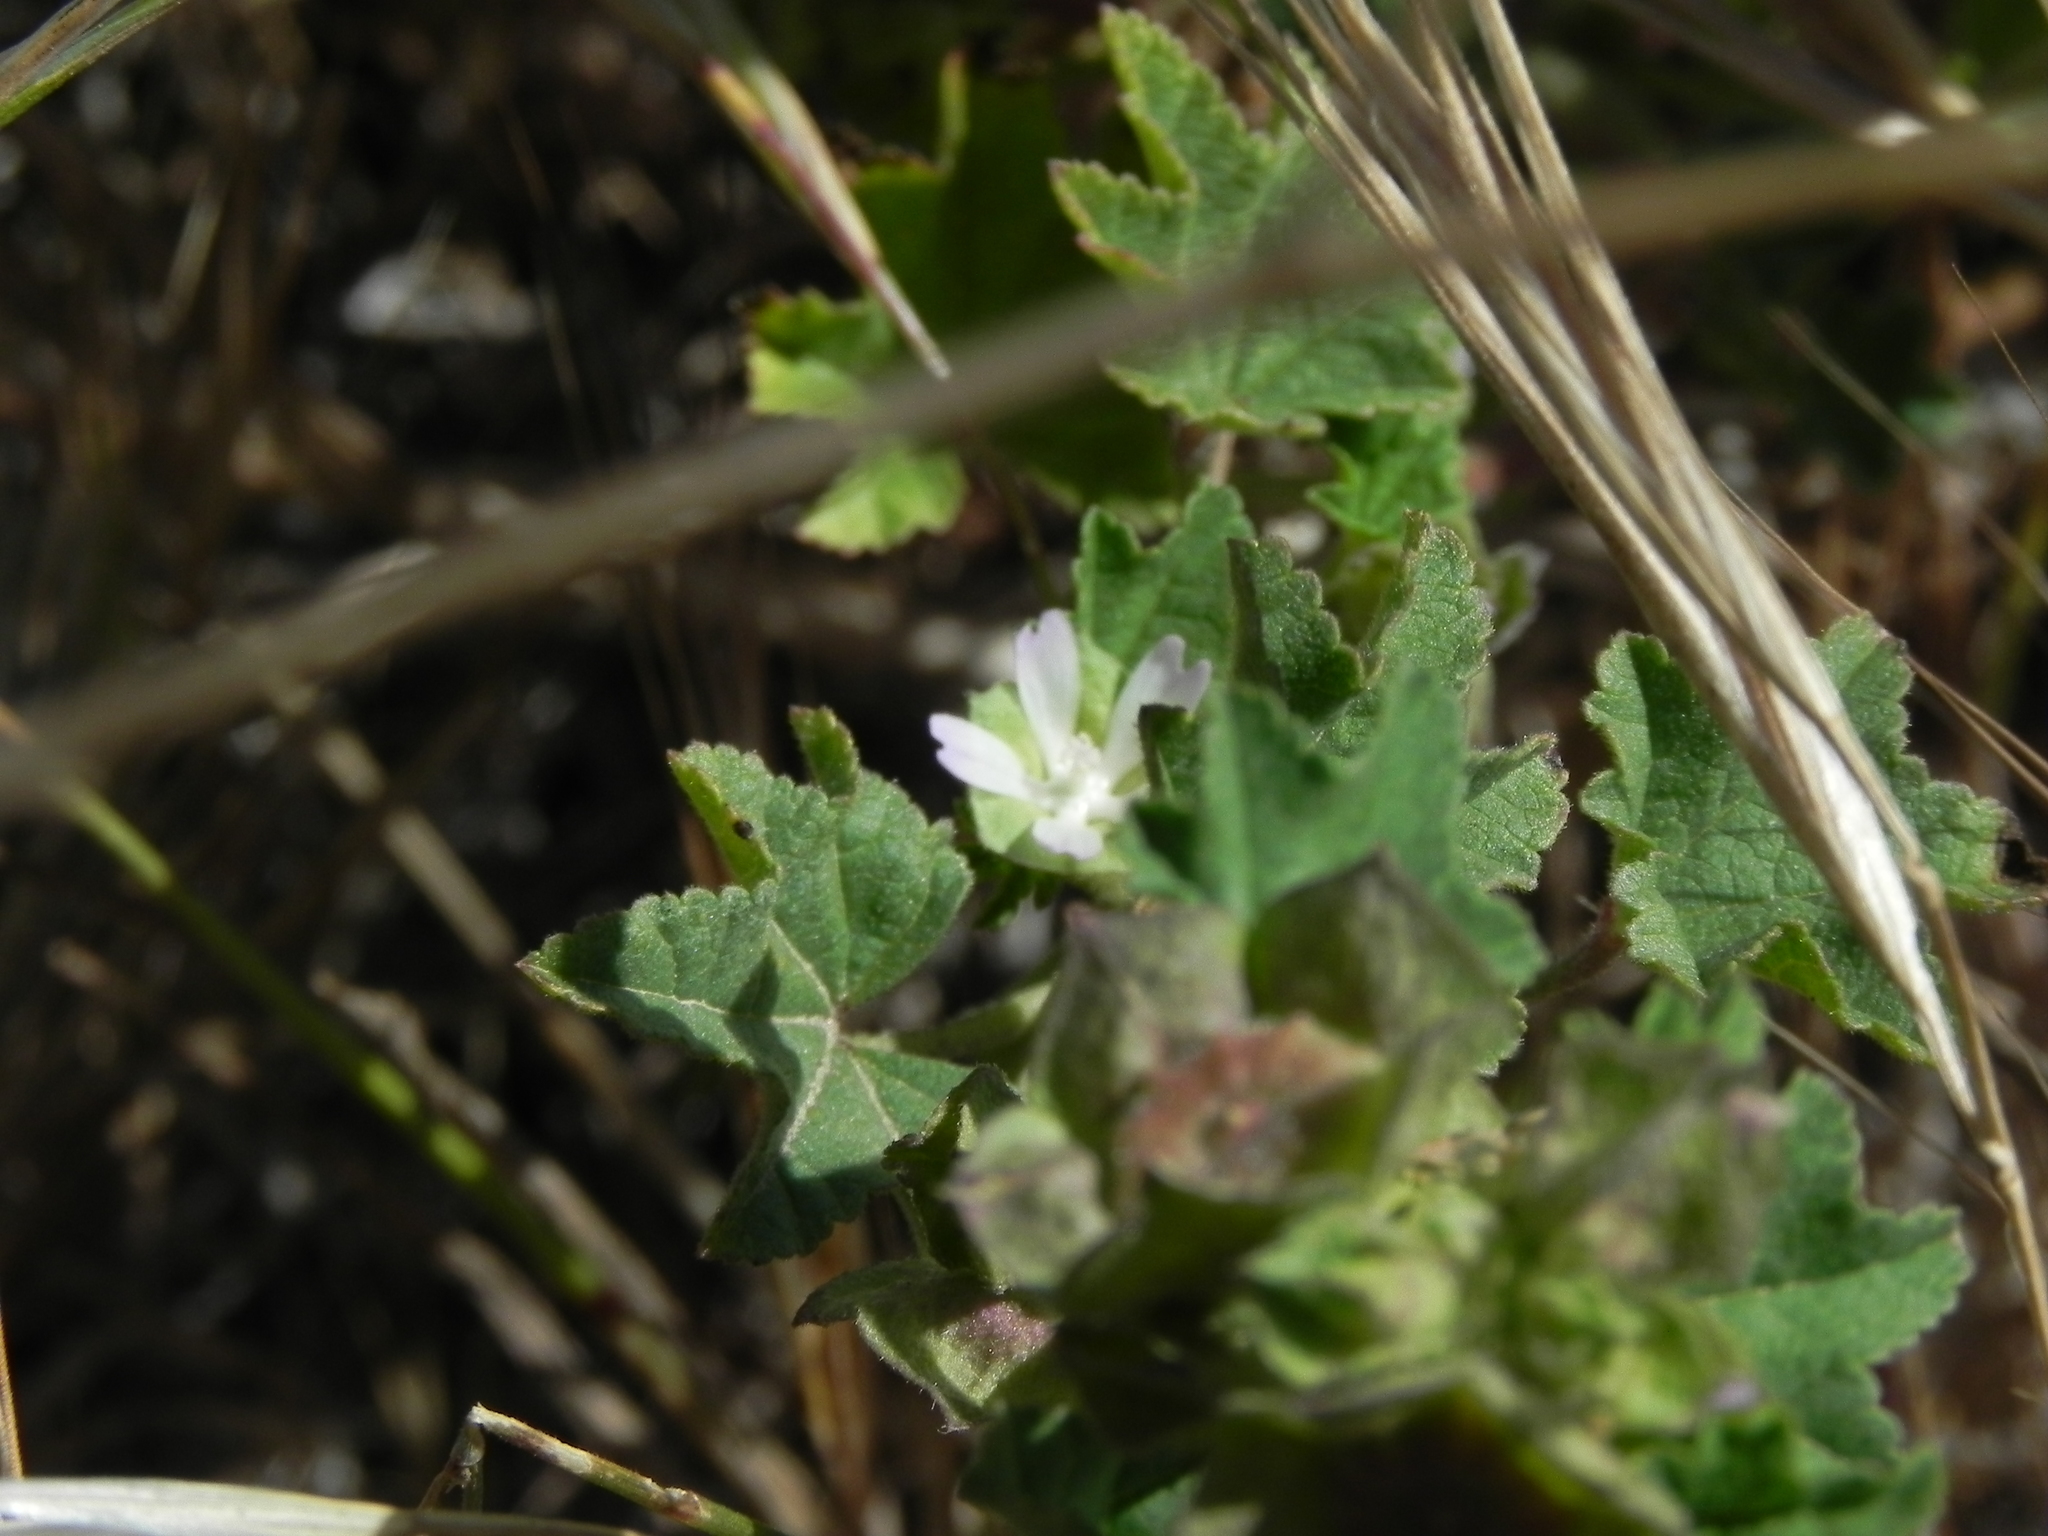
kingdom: Plantae
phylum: Tracheophyta
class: Magnoliopsida
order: Malvales
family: Malvaceae
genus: Malva
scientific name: Malva parviflora
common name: Least mallow
